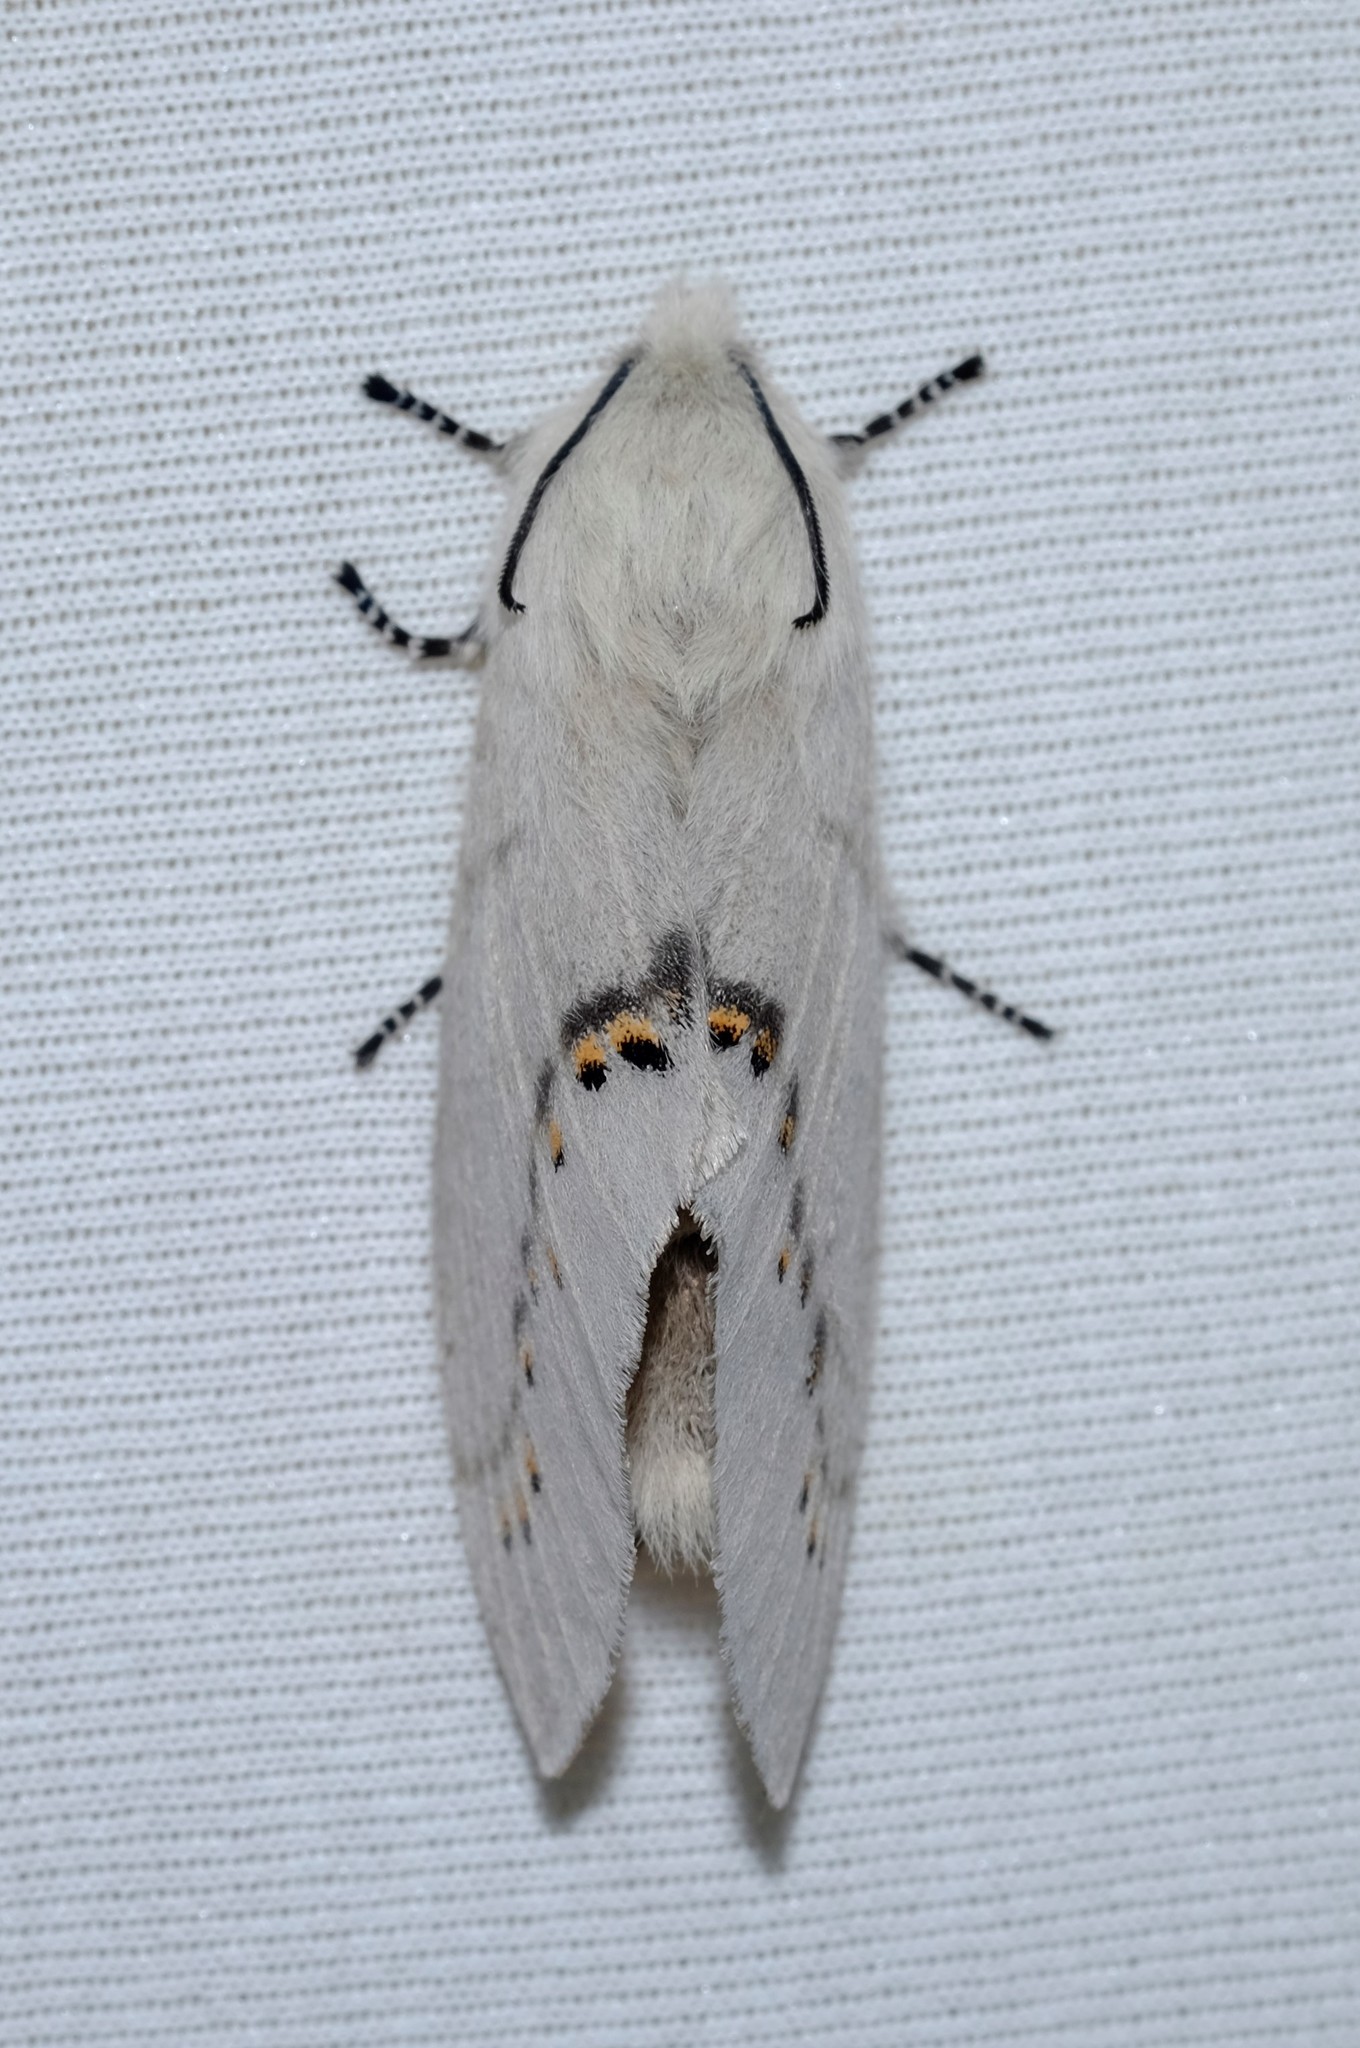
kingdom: Animalia
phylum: Arthropoda
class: Insecta
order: Lepidoptera
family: Lasiocampidae
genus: Pinara
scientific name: Pinara metaphaea
